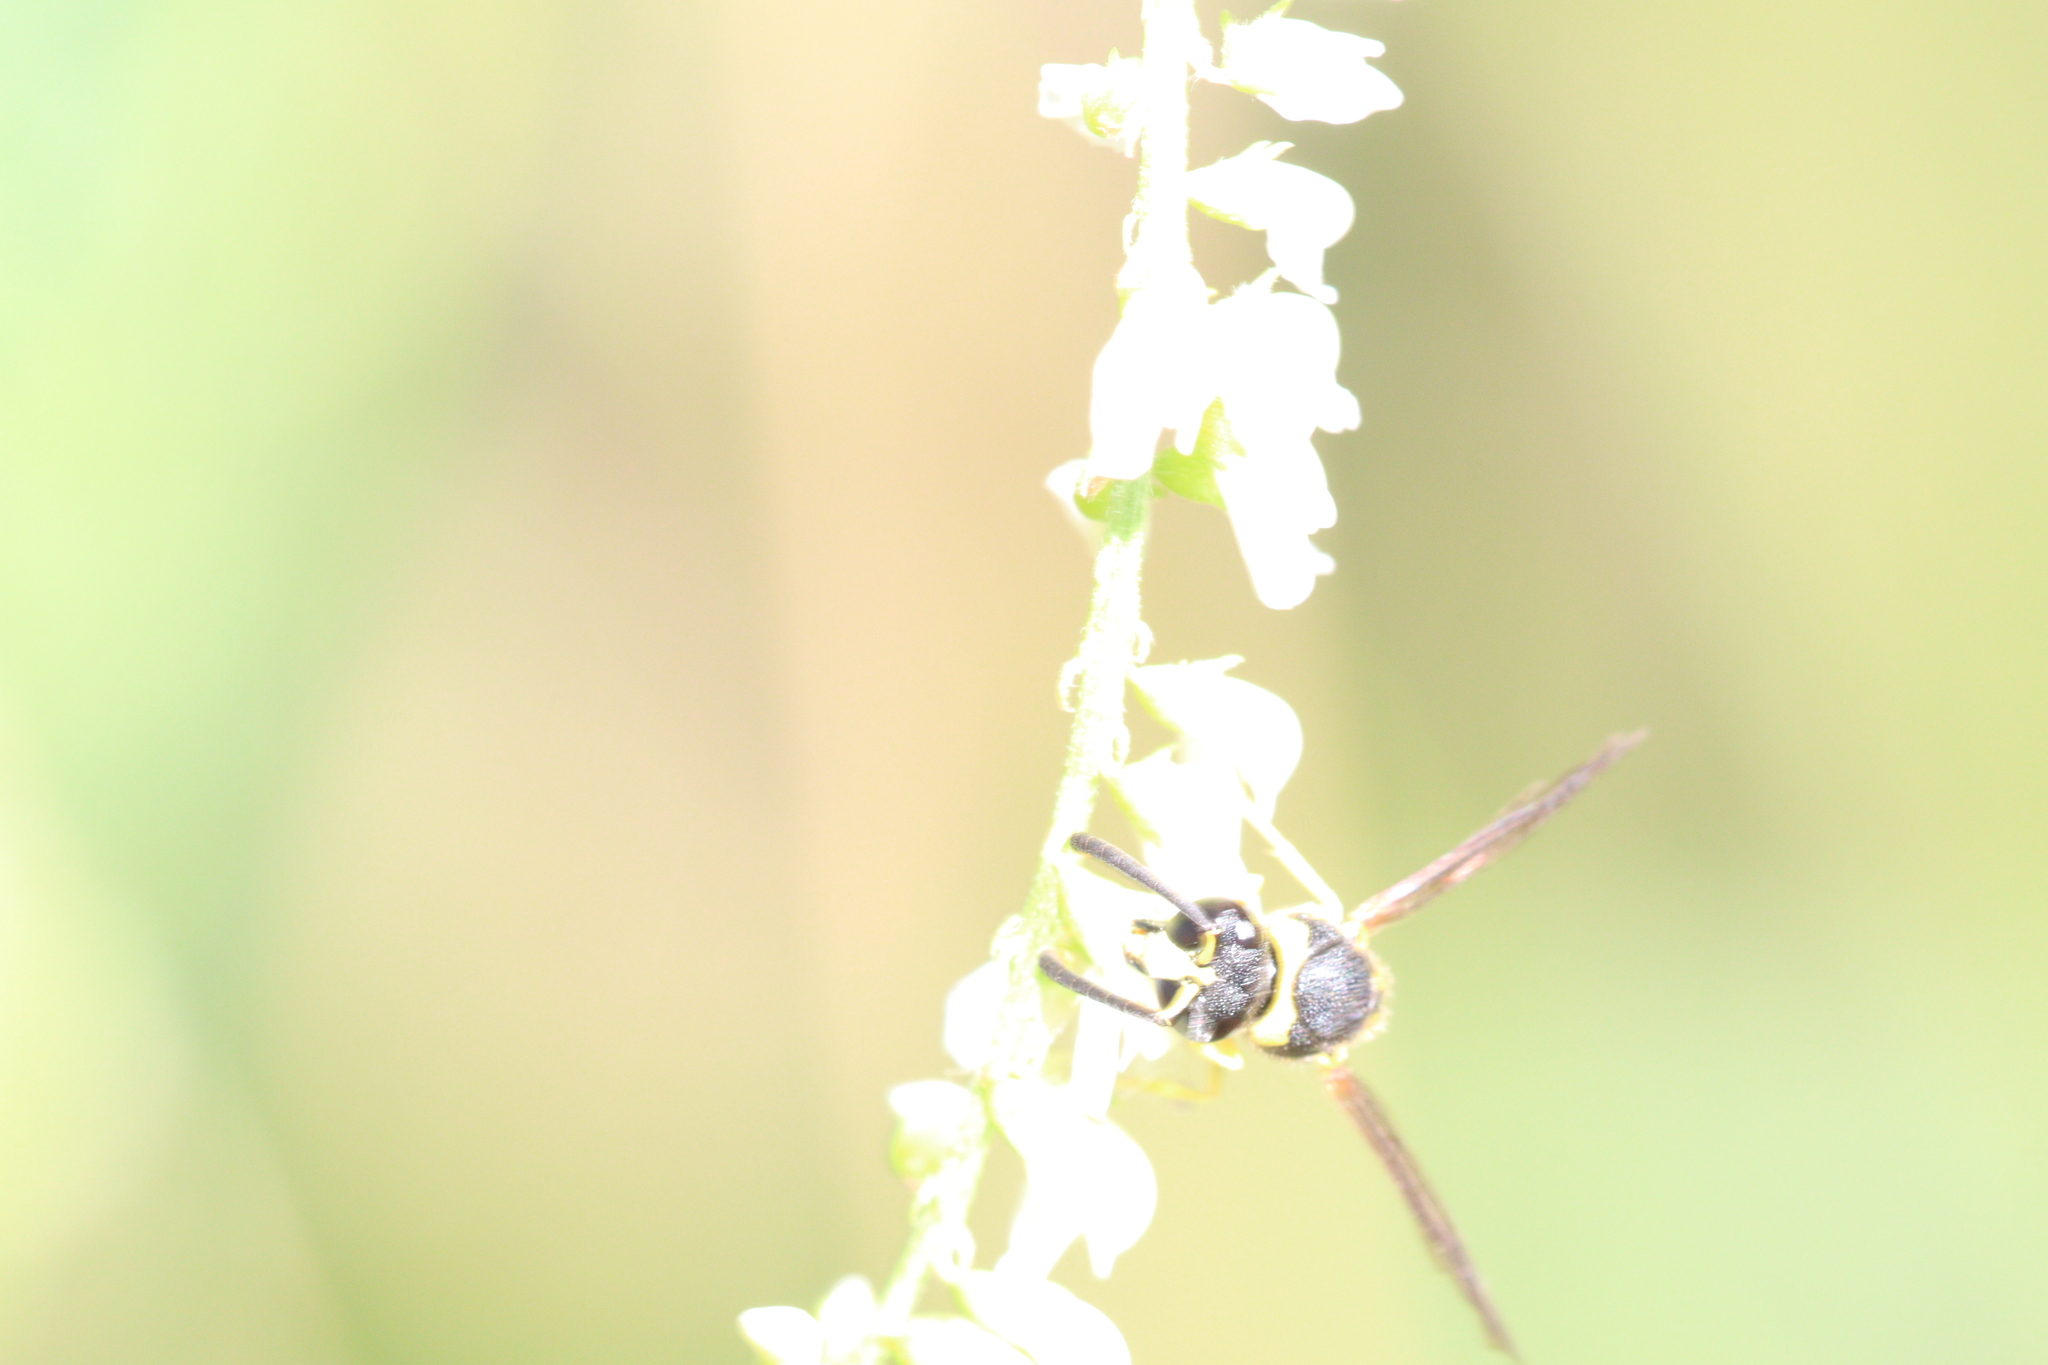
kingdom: Animalia
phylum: Arthropoda
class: Insecta
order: Hymenoptera
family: Vespidae
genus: Eumenes
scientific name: Eumenes
